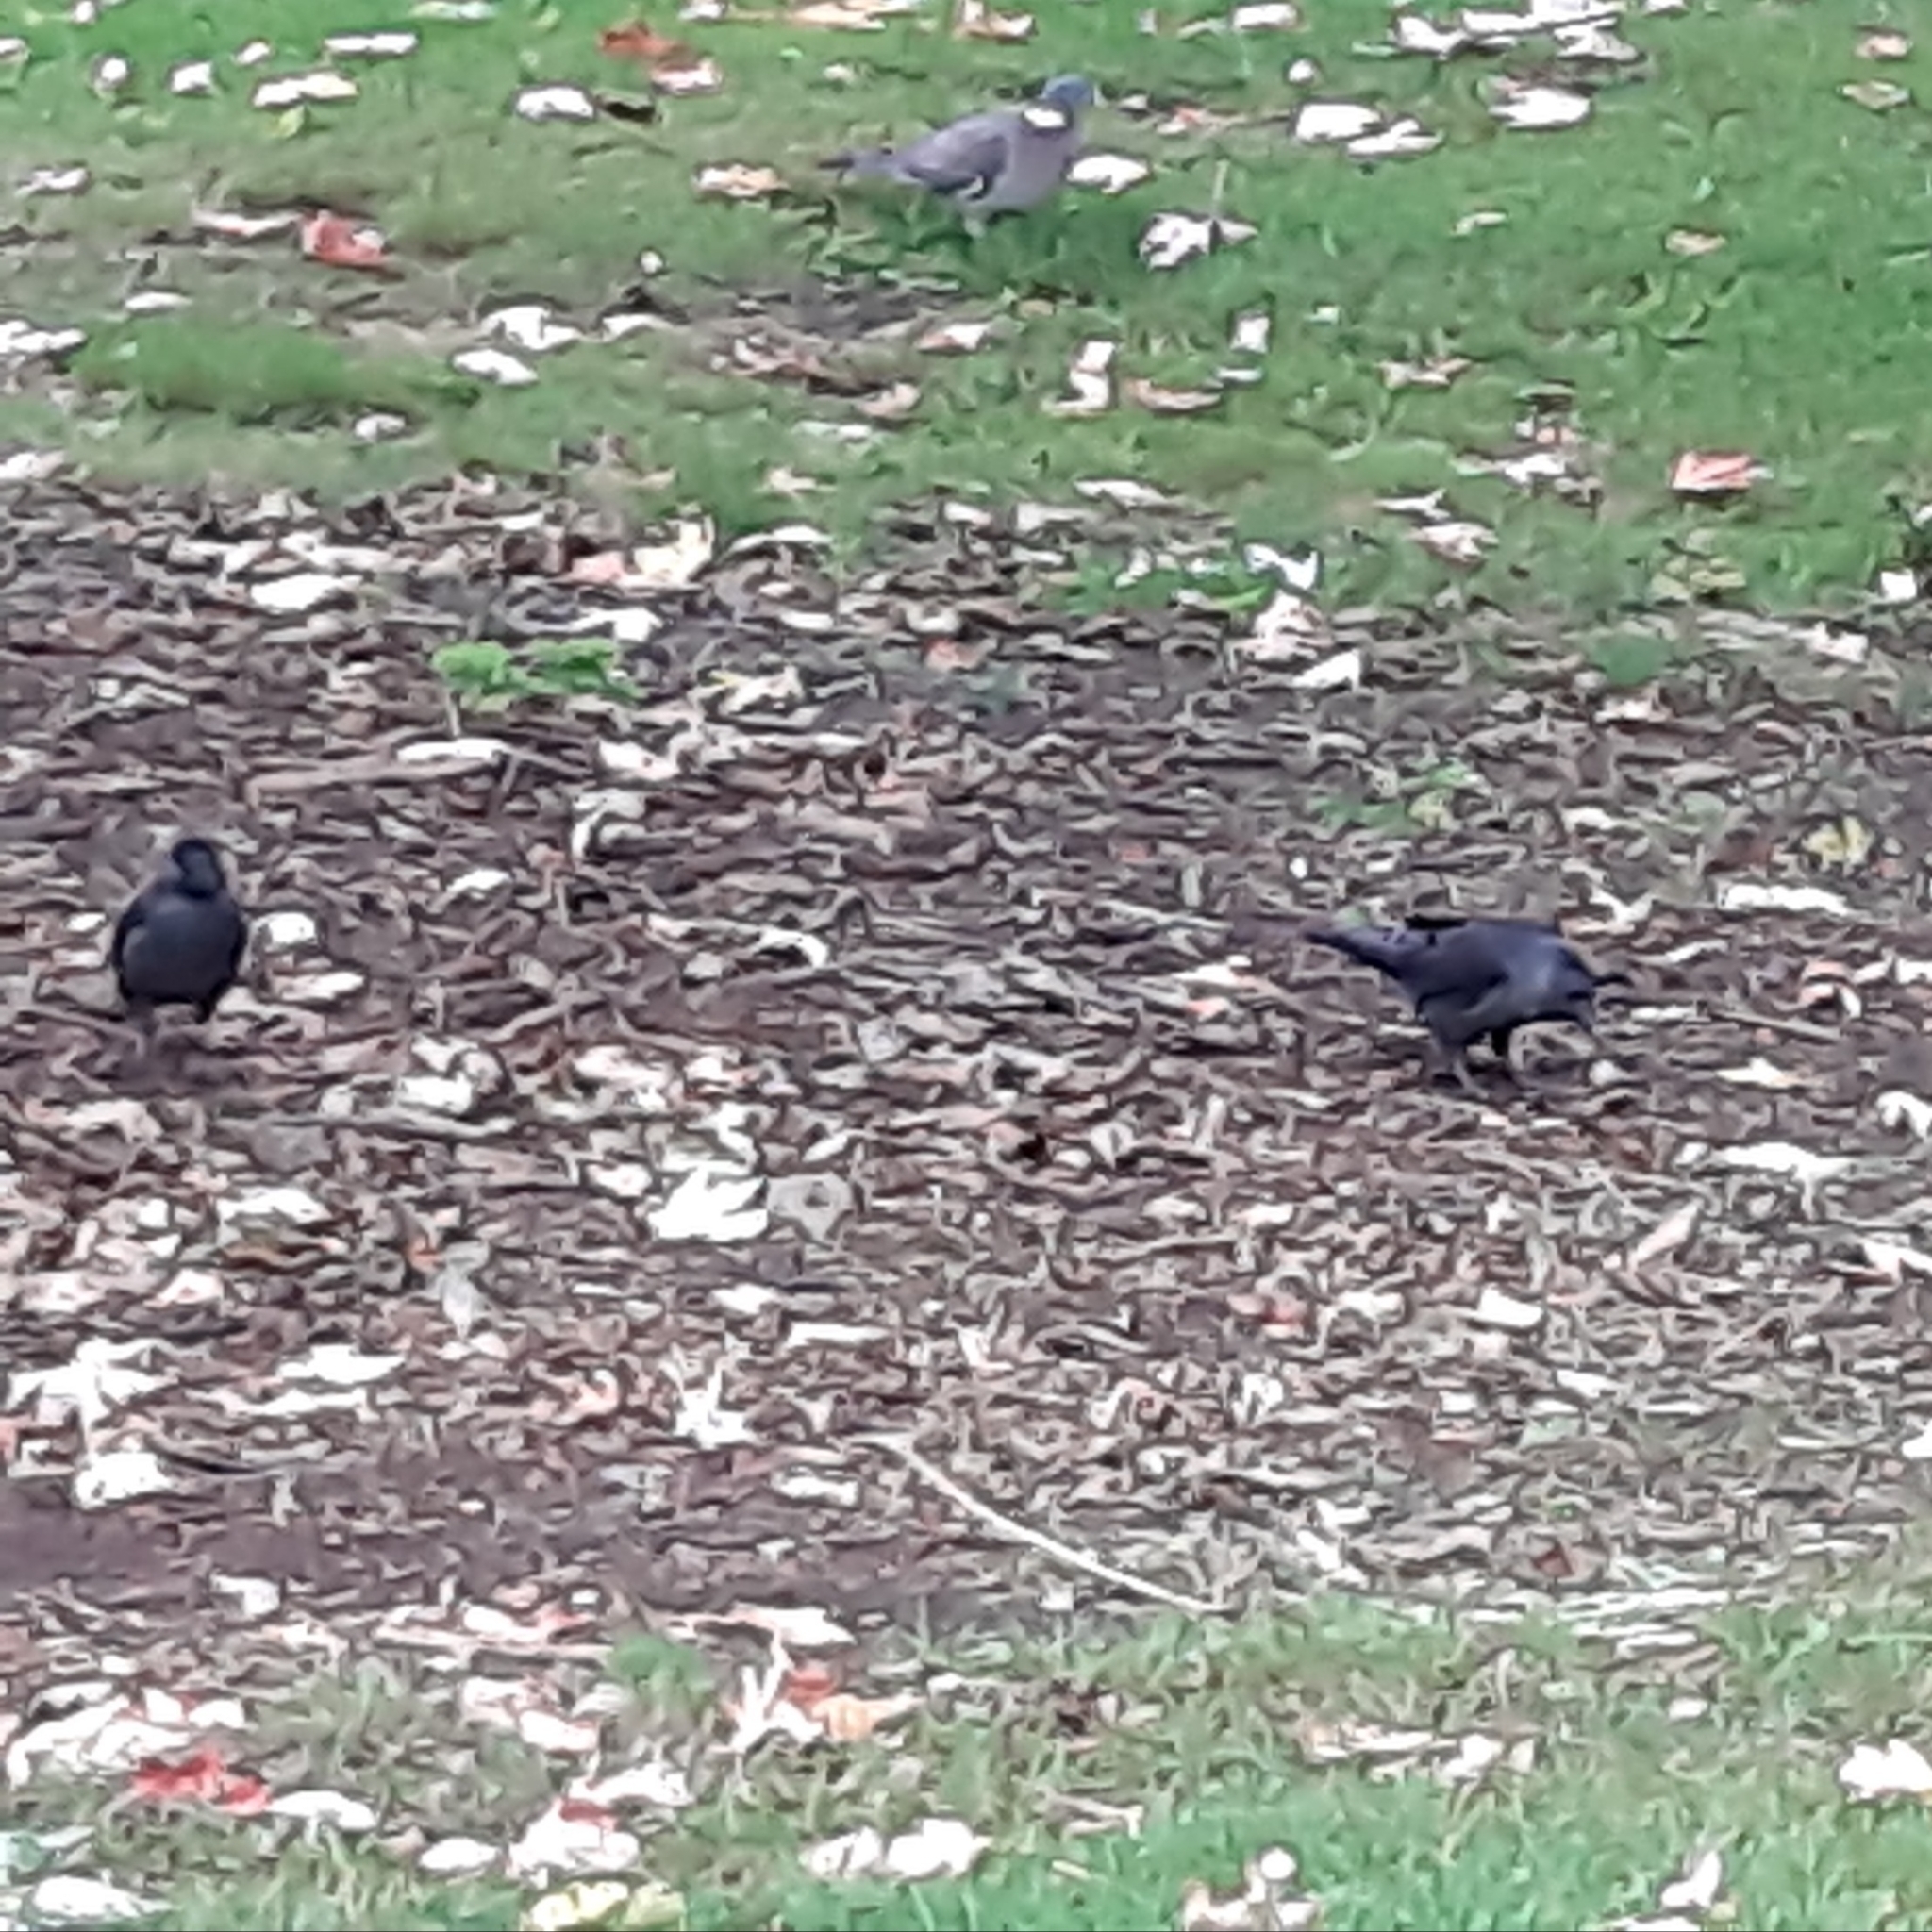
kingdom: Animalia
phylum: Chordata
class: Aves
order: Passeriformes
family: Corvidae
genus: Coloeus
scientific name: Coloeus monedula
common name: Western jackdaw
